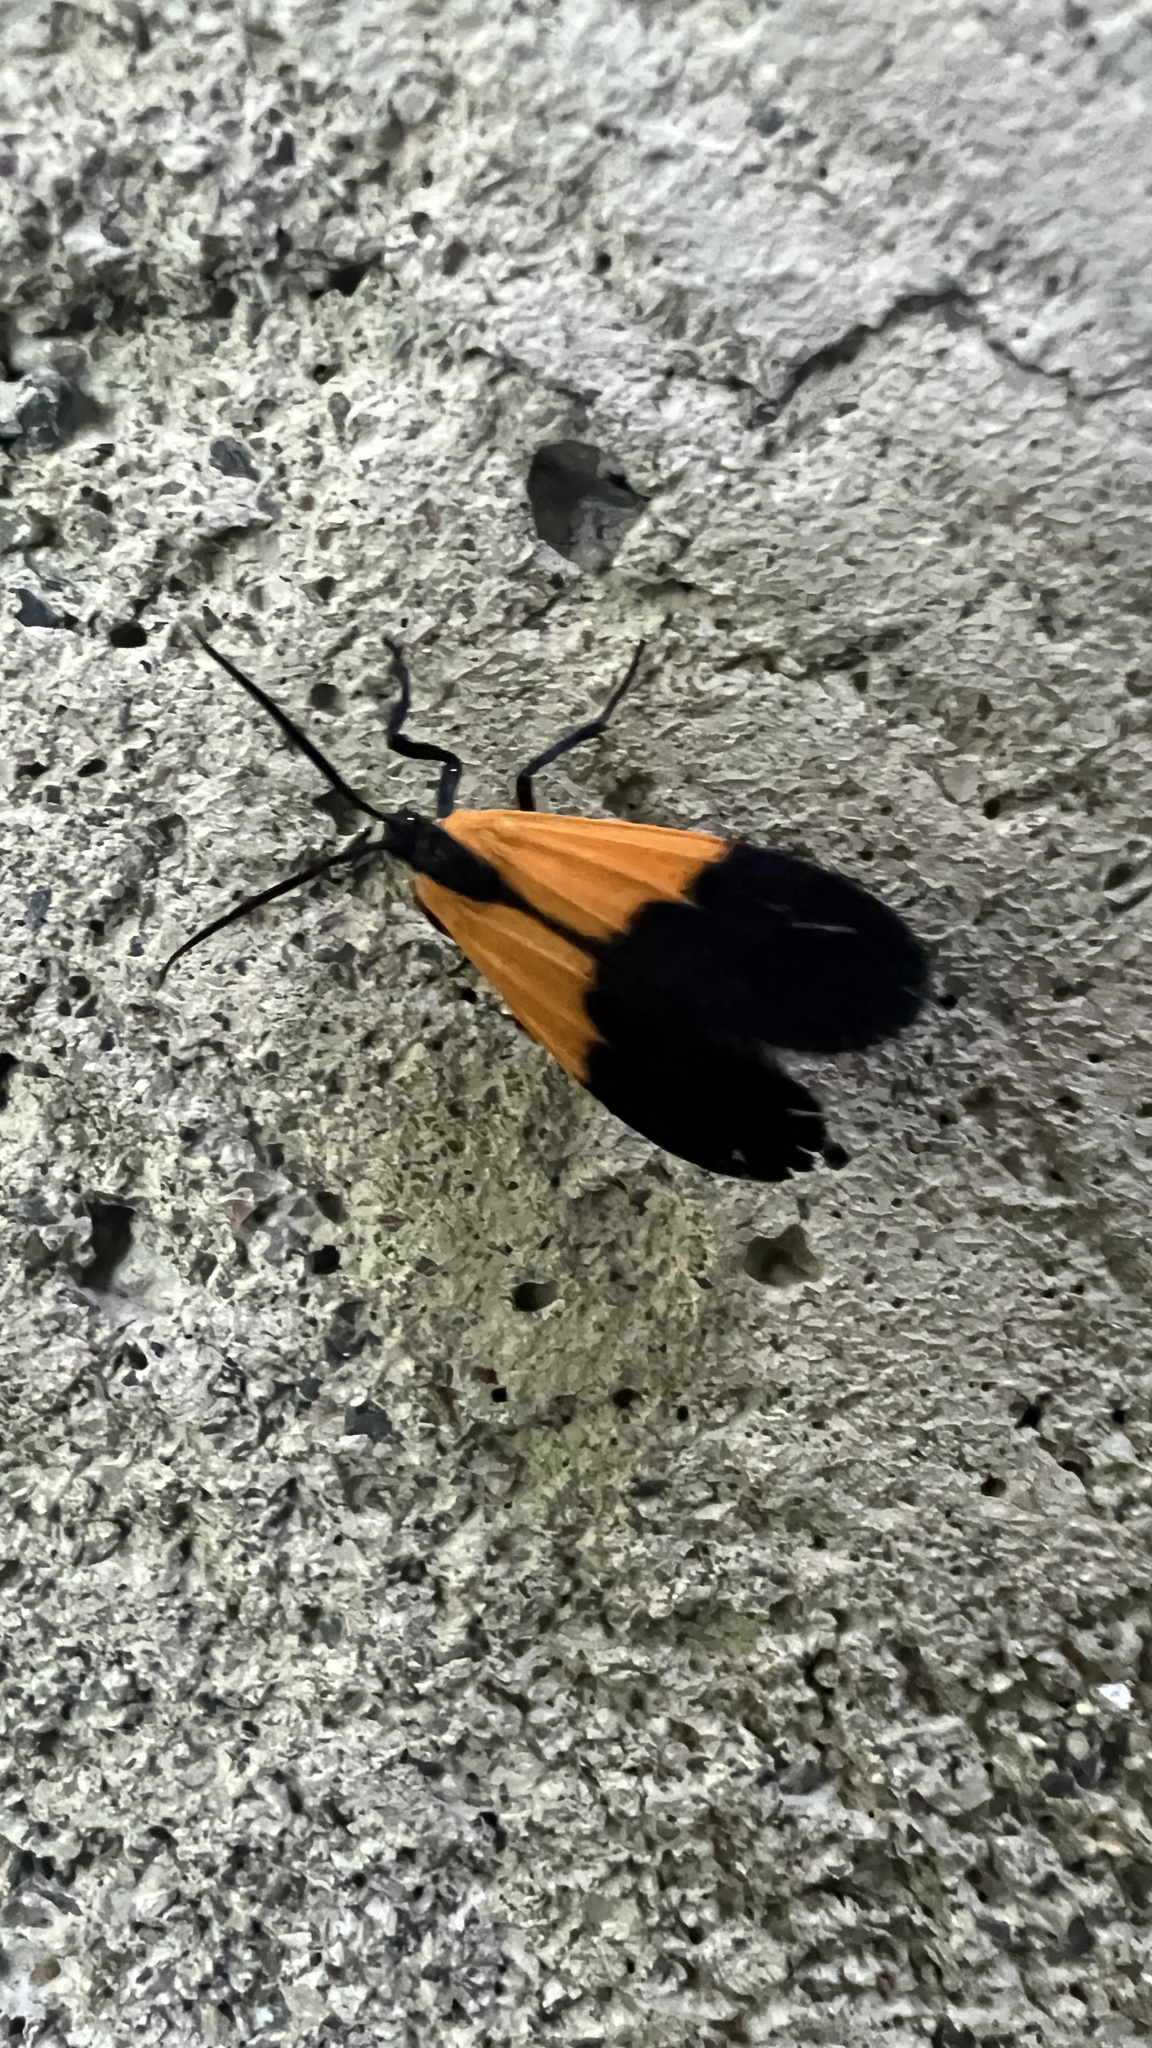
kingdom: Animalia
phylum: Arthropoda
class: Insecta
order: Lepidoptera
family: Erebidae
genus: Lycomorpha
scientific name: Lycomorpha pholus
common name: Black-and-yellow lichen moth
